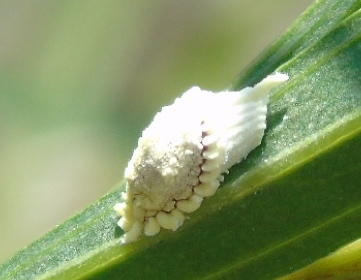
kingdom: Animalia
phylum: Arthropoda
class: Insecta
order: Hemiptera
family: Margarodidae
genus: Icerya
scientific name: Icerya purchasi
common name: Cottony cushion scale
